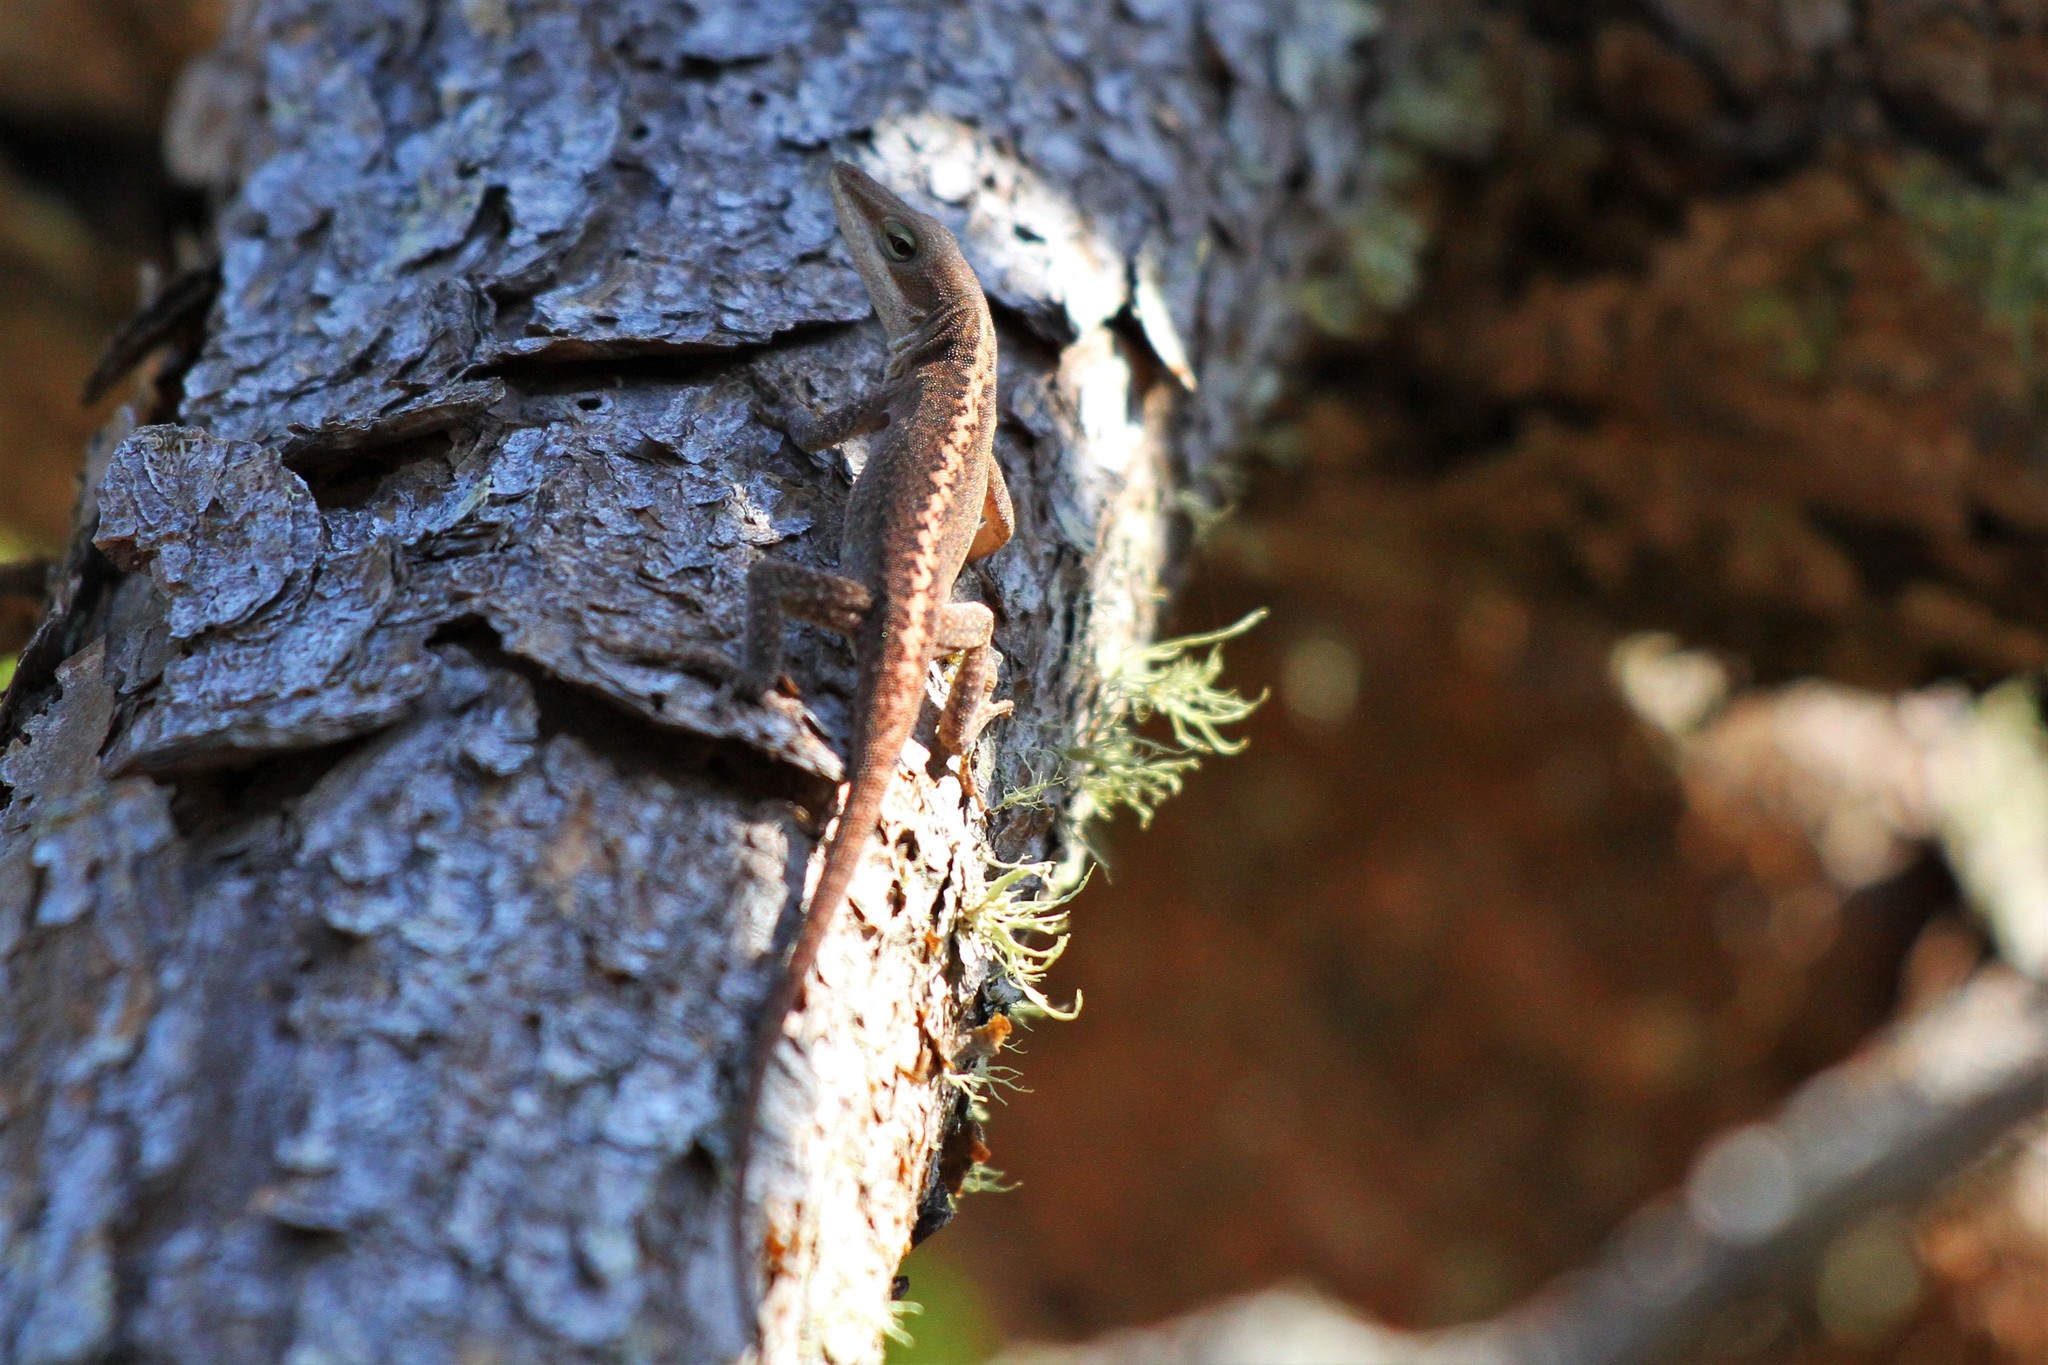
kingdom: Animalia
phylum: Chordata
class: Squamata
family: Dactyloidae
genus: Anolis
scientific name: Anolis carolinensis
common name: Green anole
